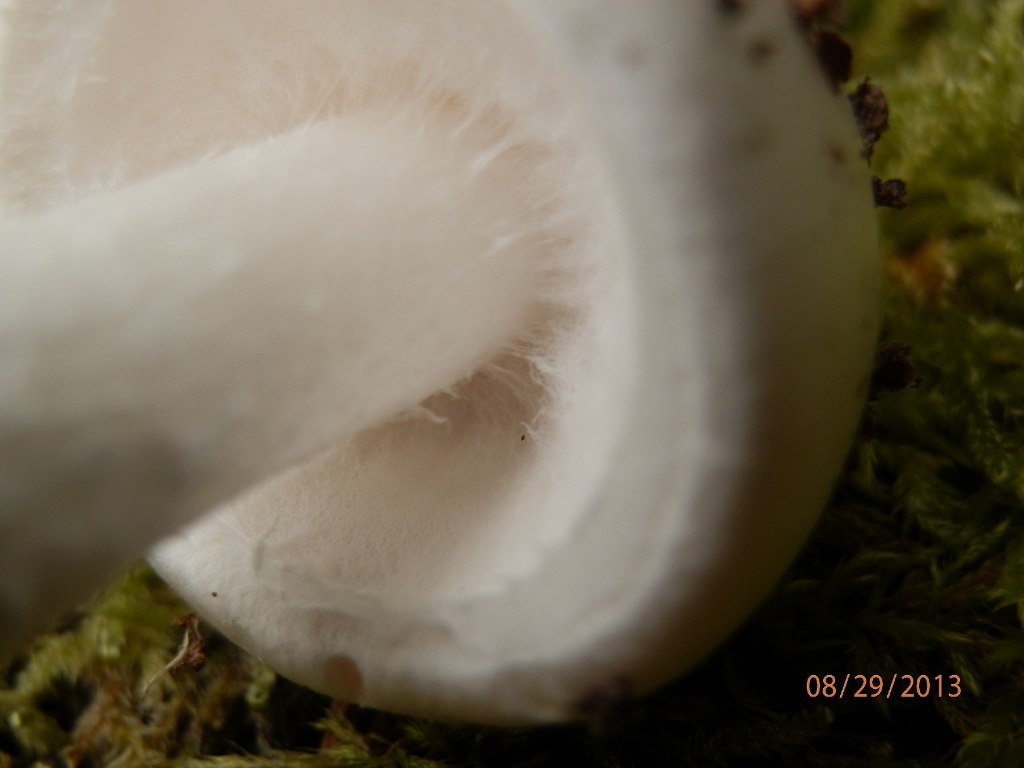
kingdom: Fungi
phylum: Basidiomycota
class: Agaricomycetes
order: Agaricales
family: Amanitaceae
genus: Amanita
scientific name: Amanita bisporigera
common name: Eastern north american destroying angel
